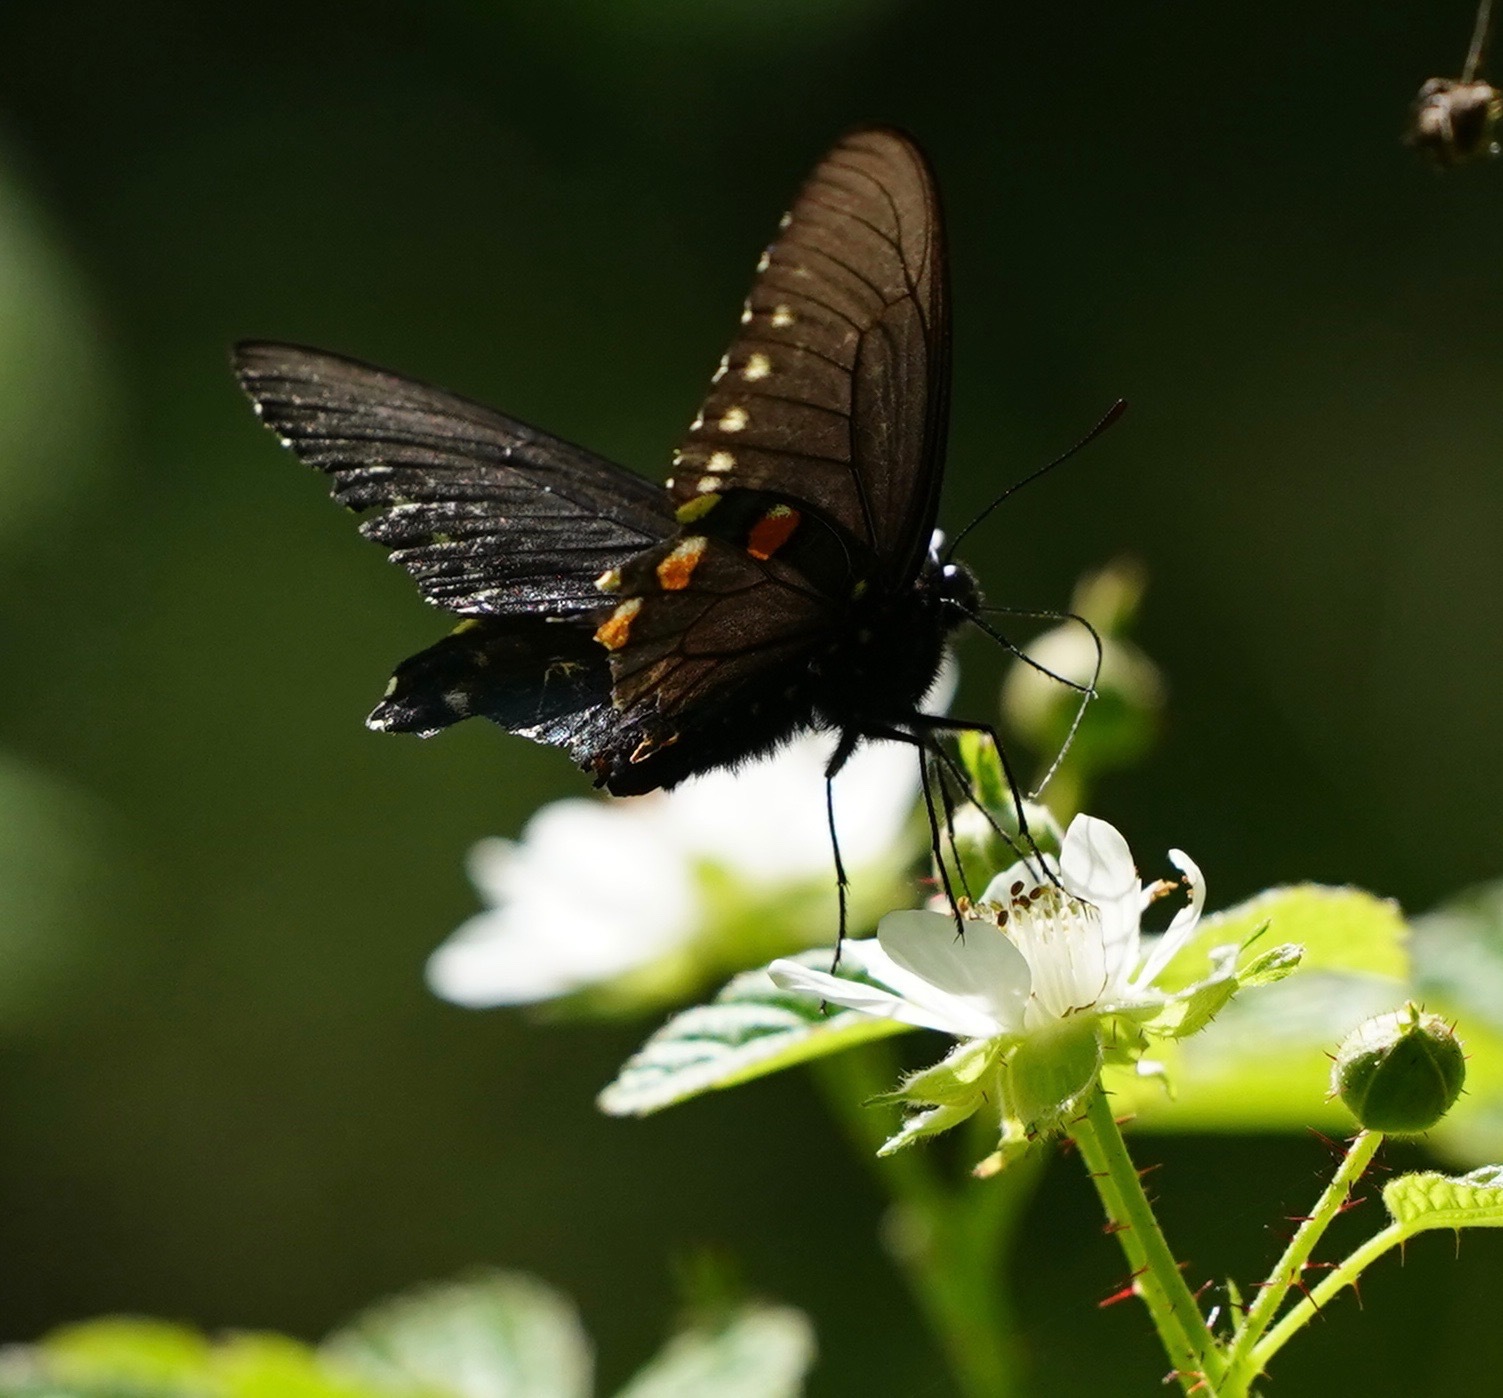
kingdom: Animalia
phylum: Arthropoda
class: Insecta
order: Lepidoptera
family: Papilionidae
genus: Battus
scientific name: Battus philenor
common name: Pipevine swallowtail
